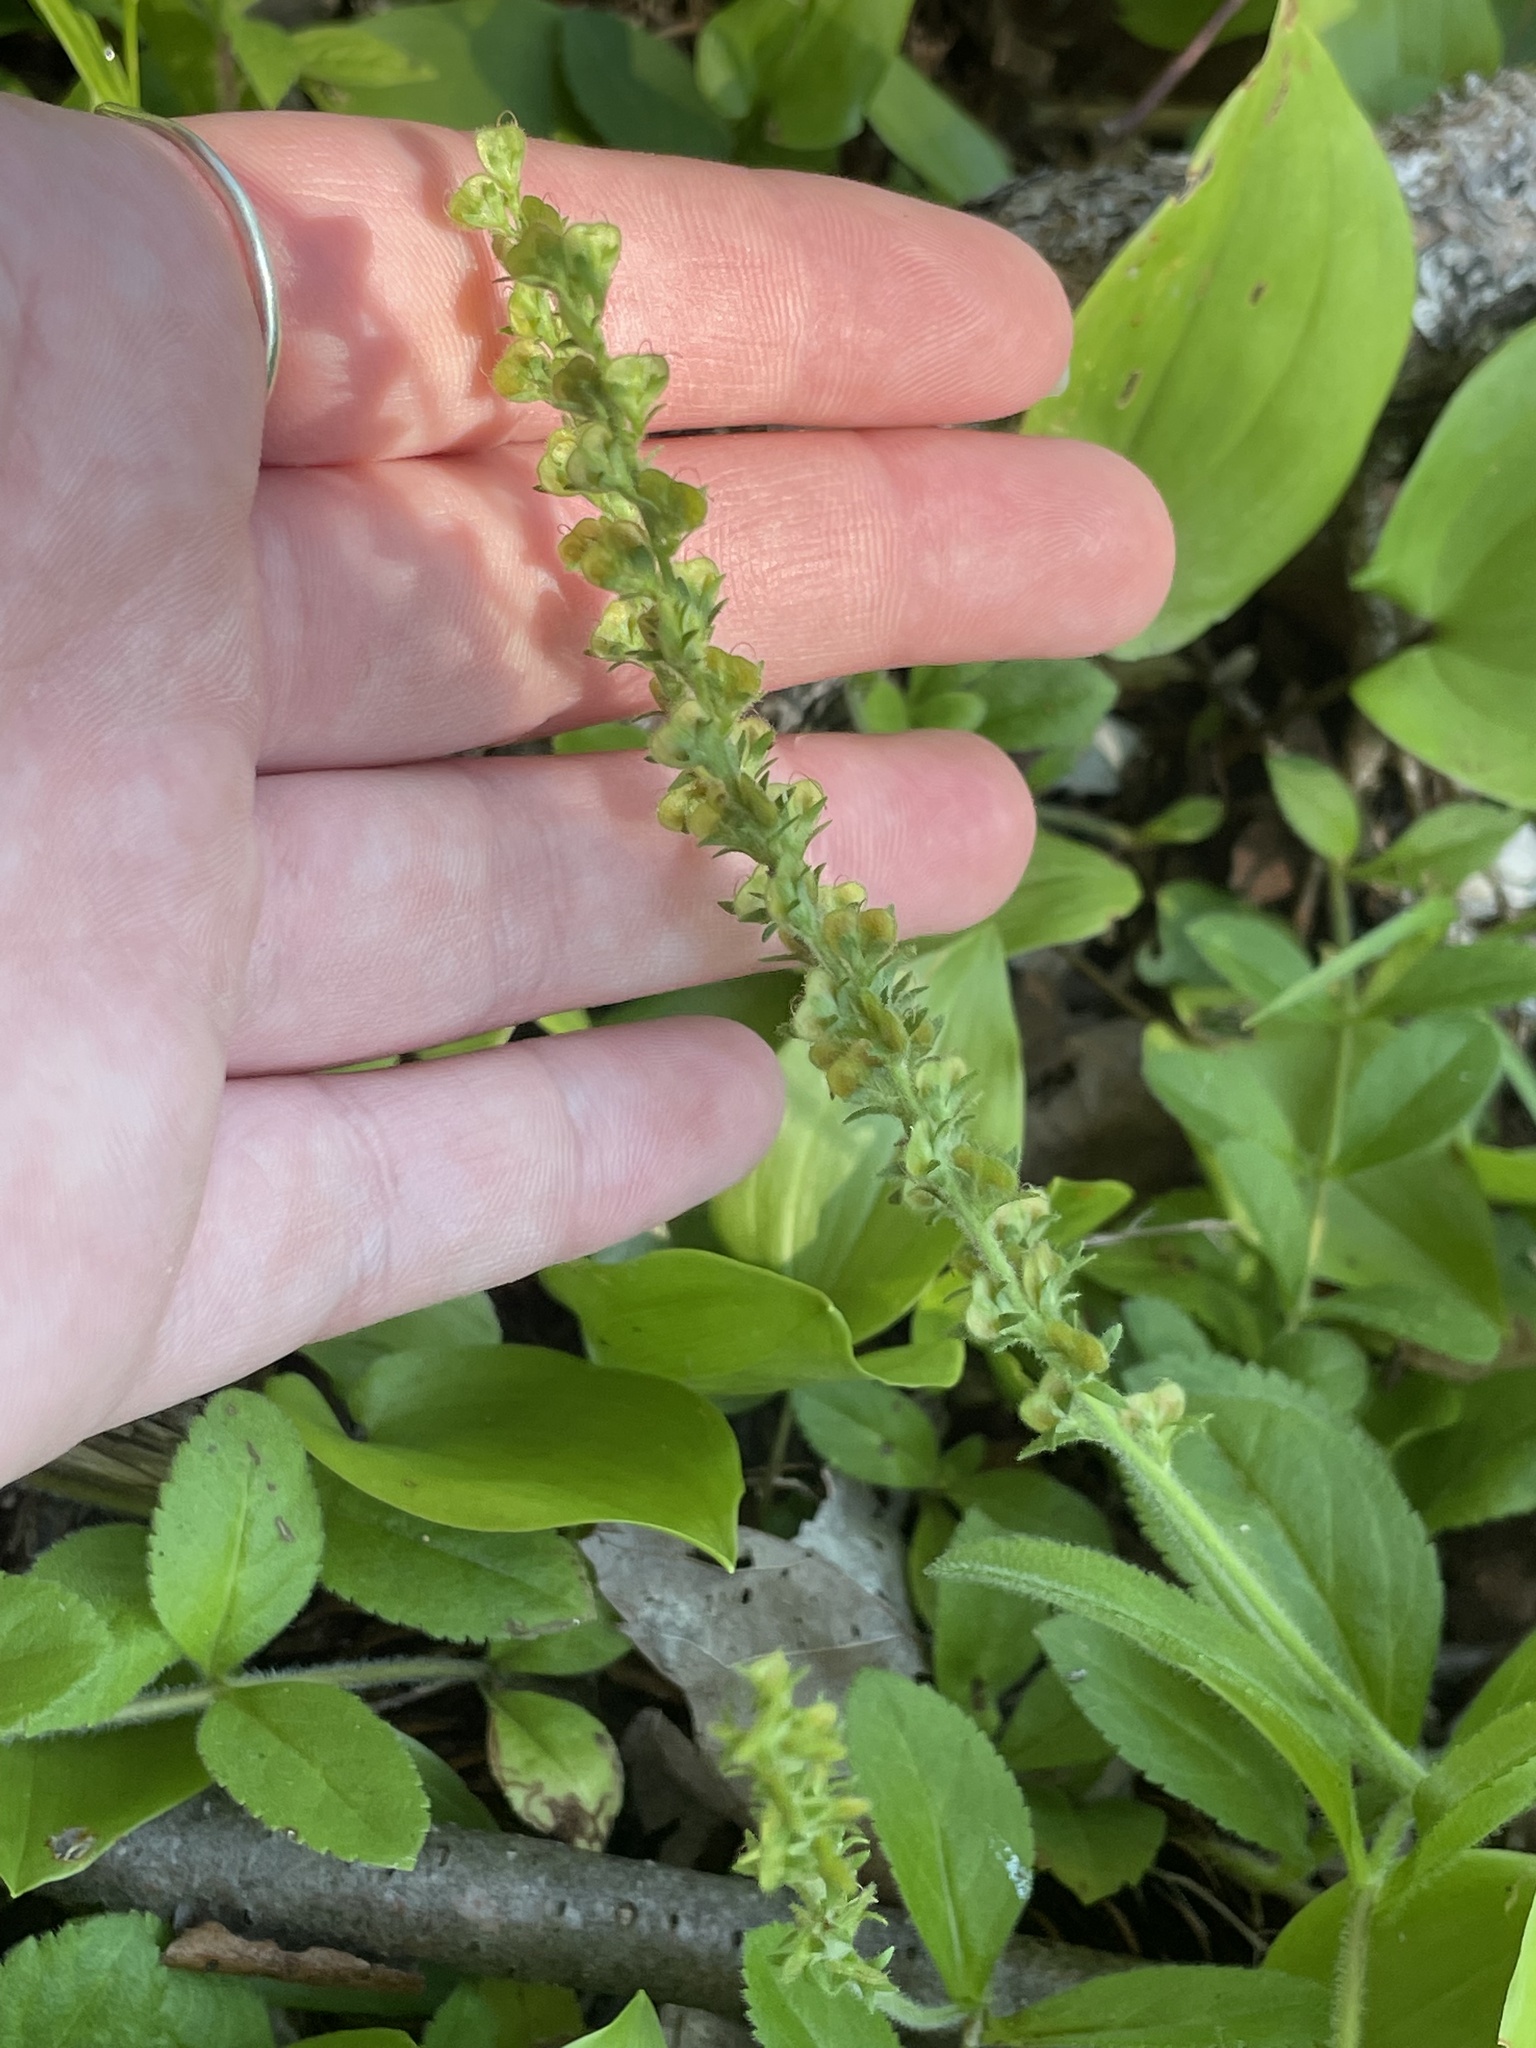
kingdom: Plantae
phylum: Tracheophyta
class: Magnoliopsida
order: Lamiales
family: Plantaginaceae
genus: Veronica
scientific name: Veronica officinalis
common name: Common speedwell
